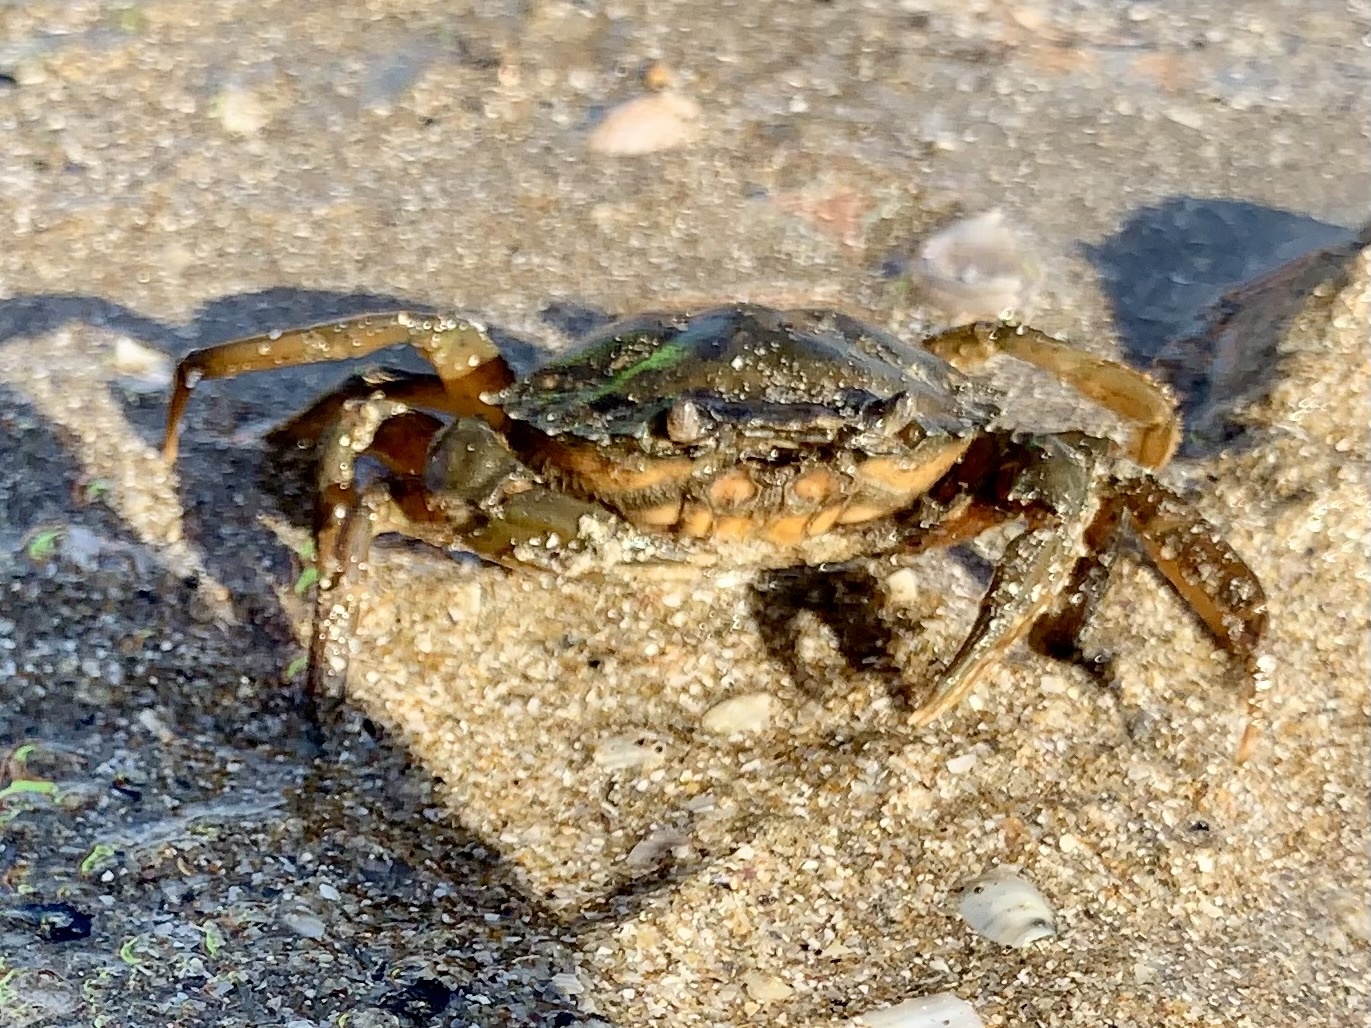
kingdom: Animalia
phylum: Arthropoda
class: Malacostraca
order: Decapoda
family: Carcinidae
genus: Carcinus
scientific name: Carcinus aestuarii
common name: Mediterranean green crab
